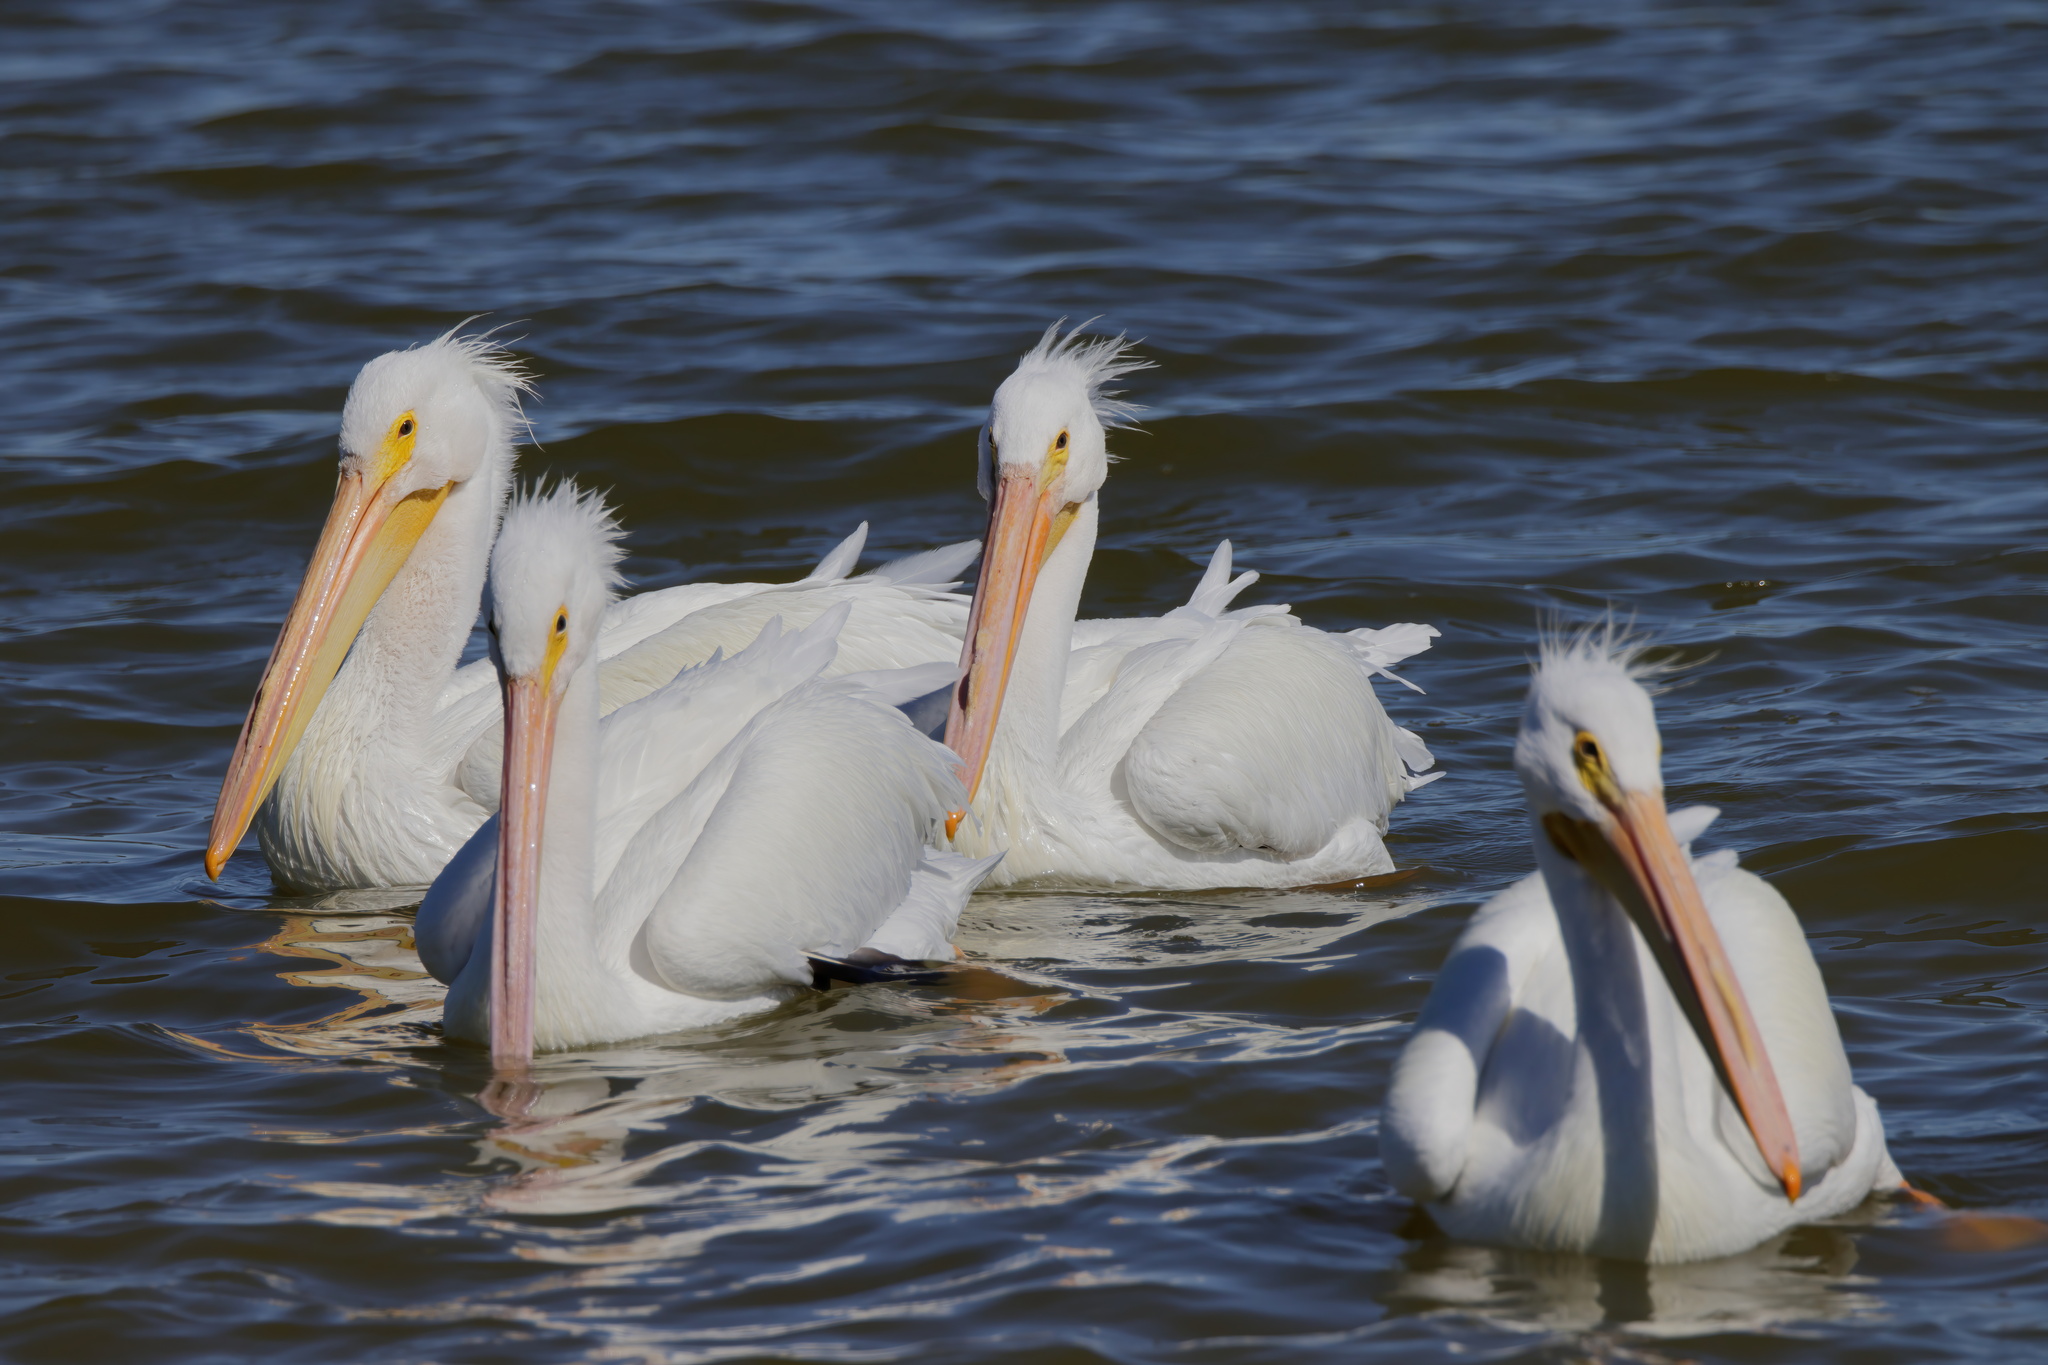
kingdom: Animalia
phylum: Chordata
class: Aves
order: Pelecaniformes
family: Pelecanidae
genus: Pelecanus
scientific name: Pelecanus erythrorhynchos
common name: American white pelican
